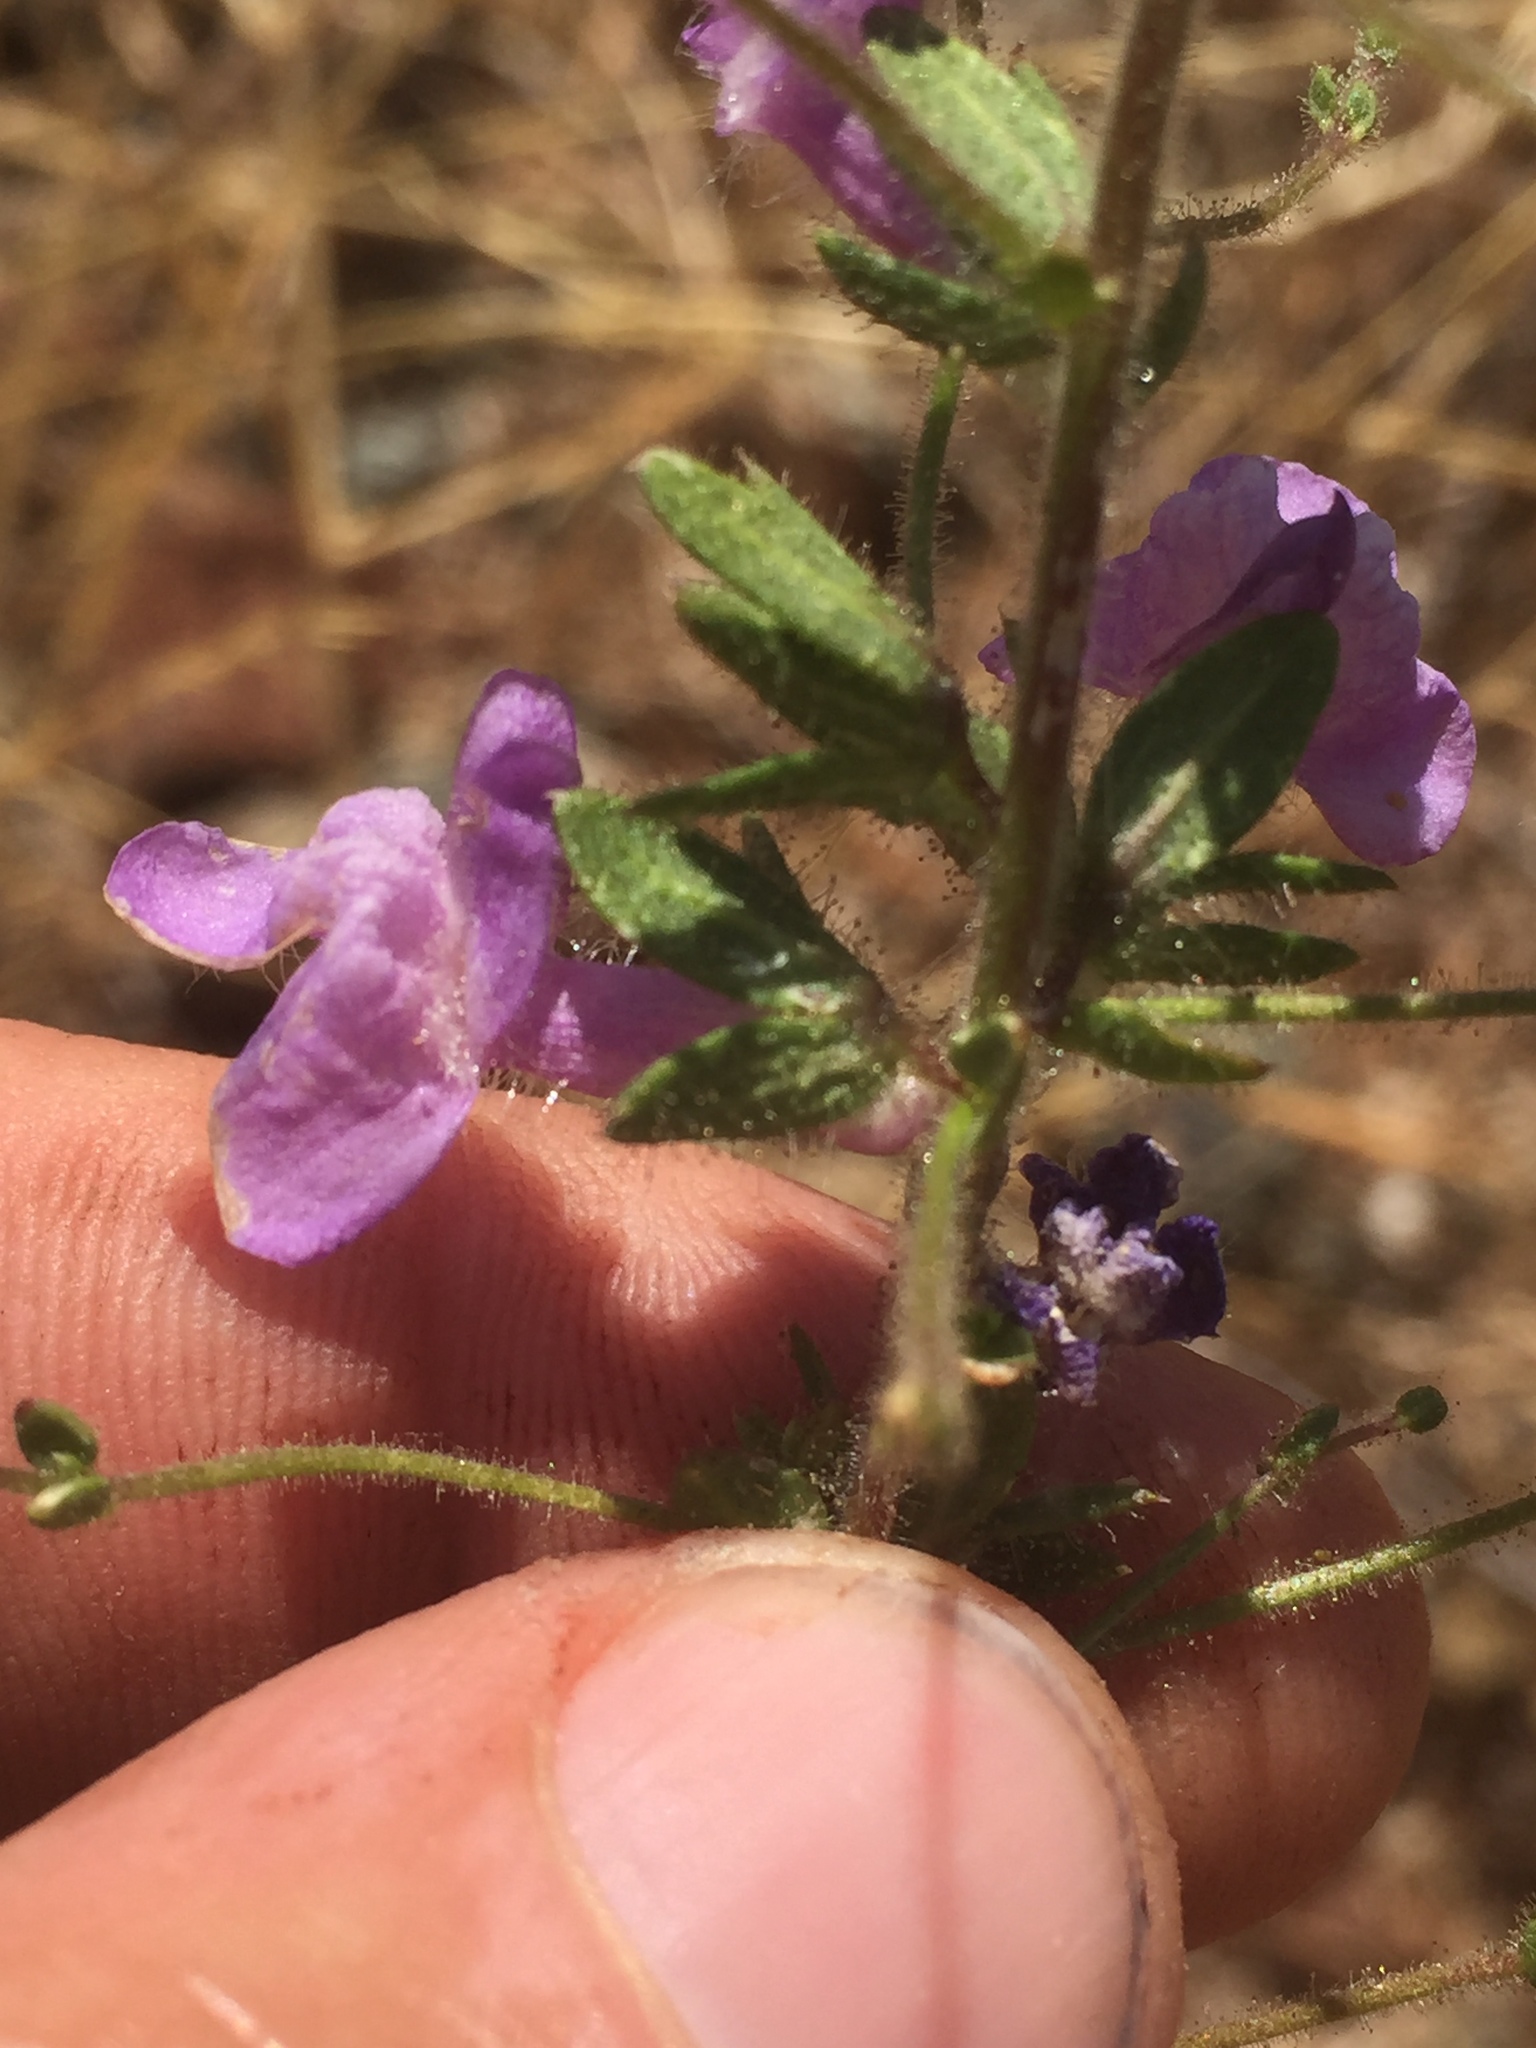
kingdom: Plantae
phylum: Tracheophyta
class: Magnoliopsida
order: Lamiales
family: Plantaginaceae
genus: Sairocarpus
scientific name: Sairocarpus vexillocalyculatus
